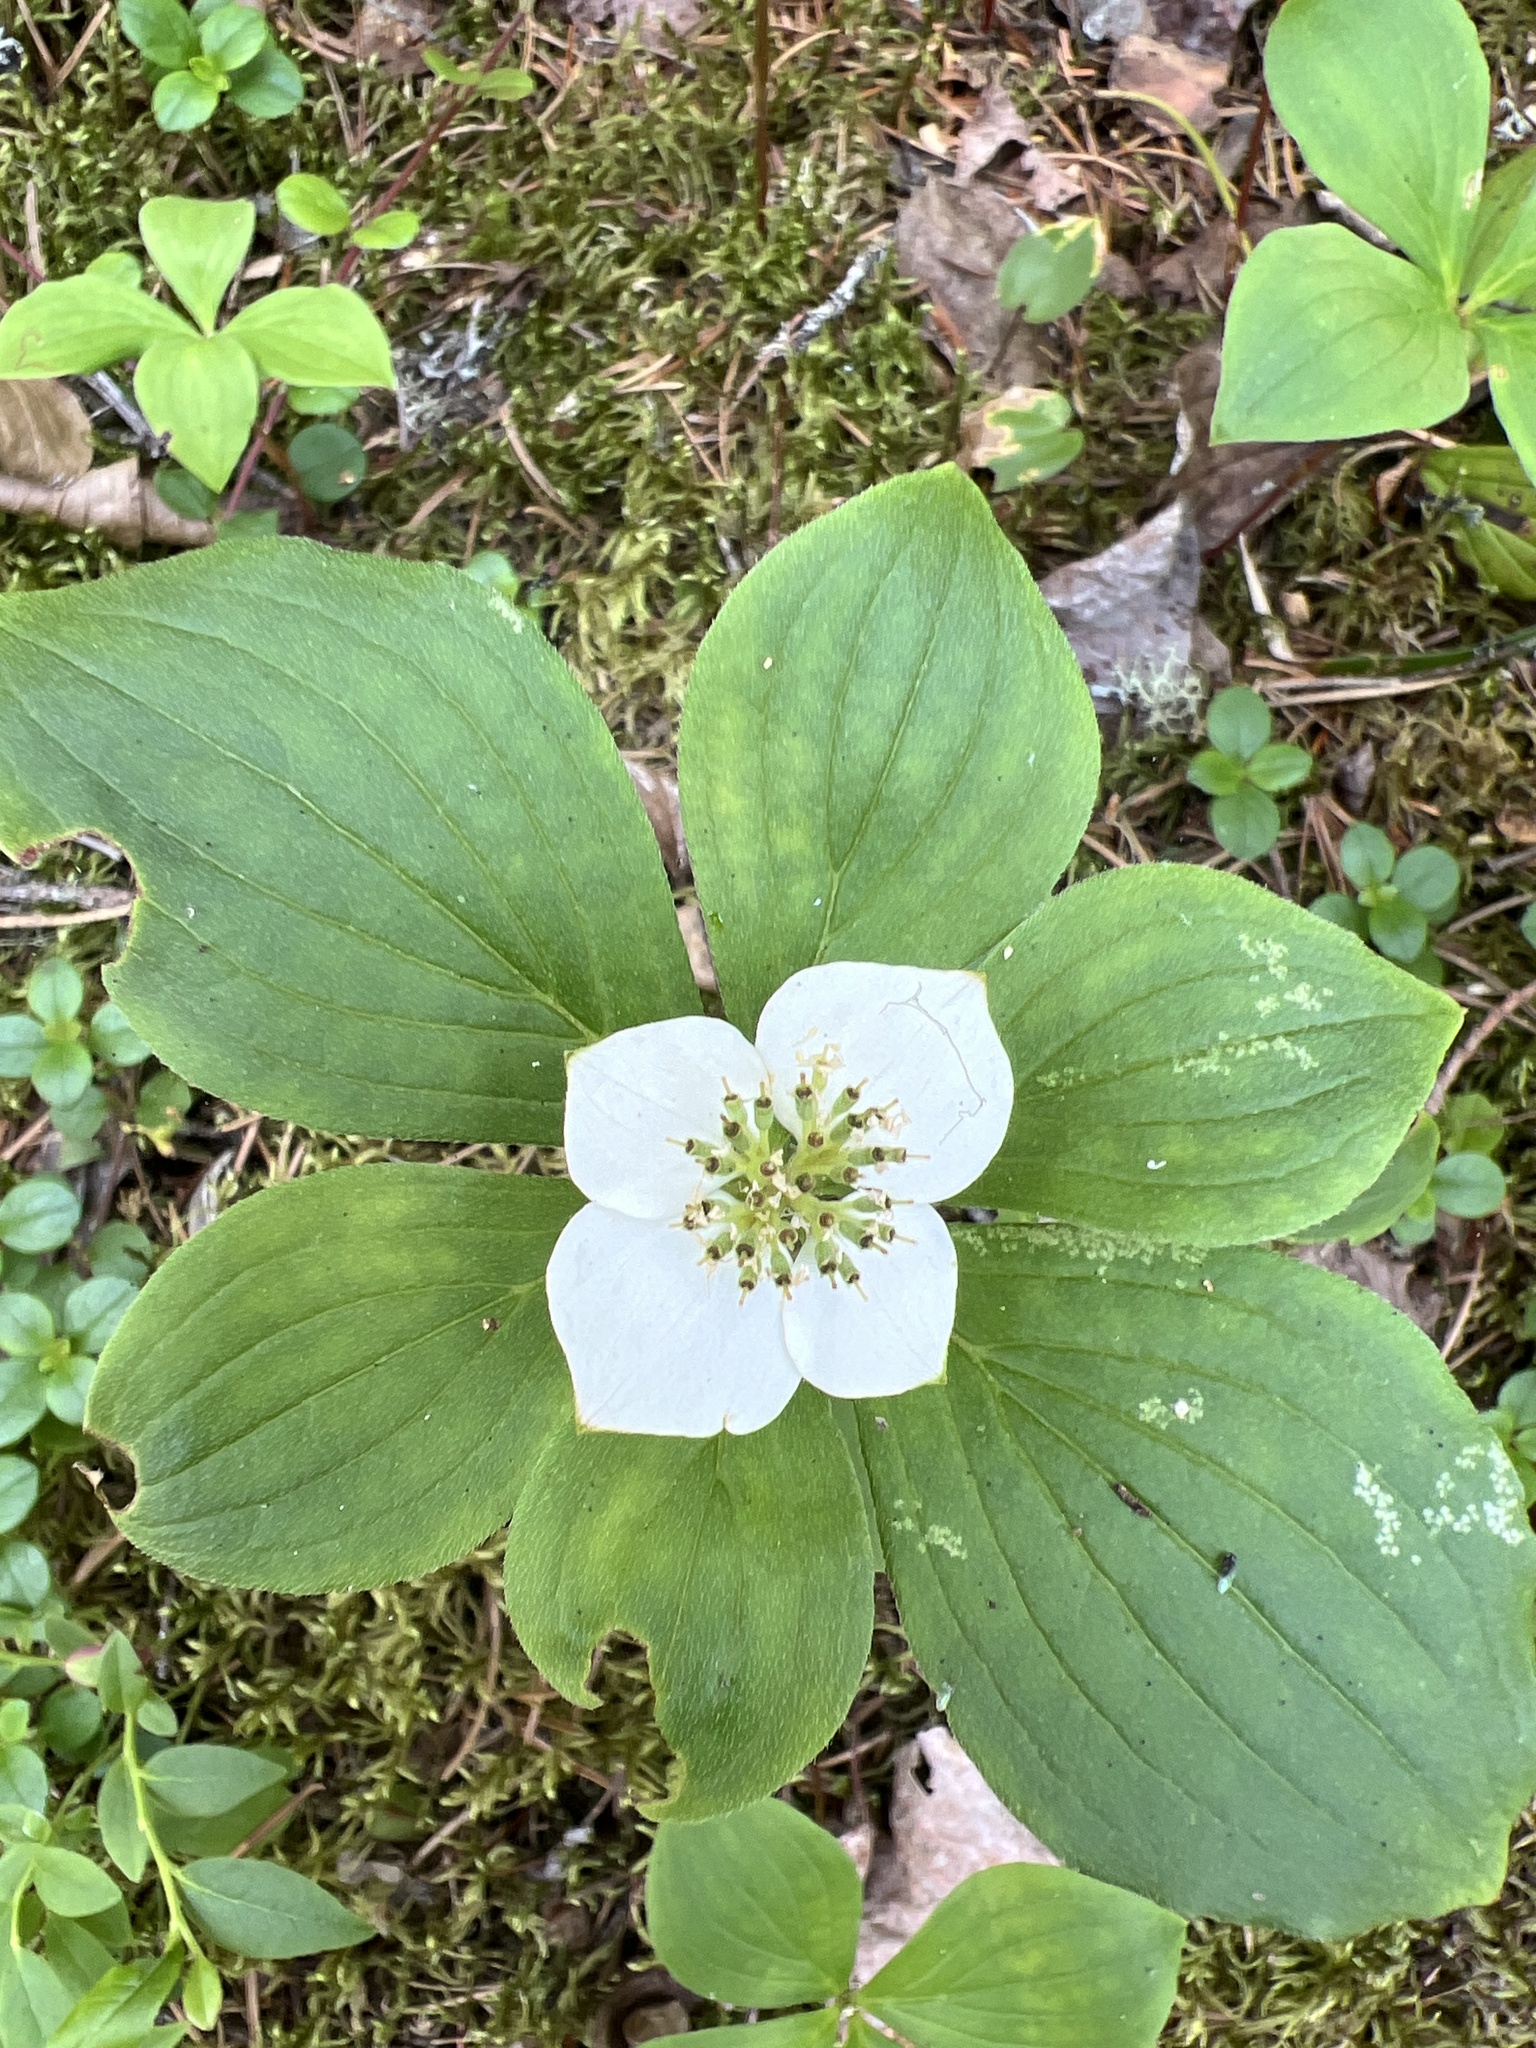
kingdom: Plantae
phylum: Tracheophyta
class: Magnoliopsida
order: Cornales
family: Cornaceae
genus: Cornus
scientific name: Cornus canadensis
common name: Creeping dogwood
